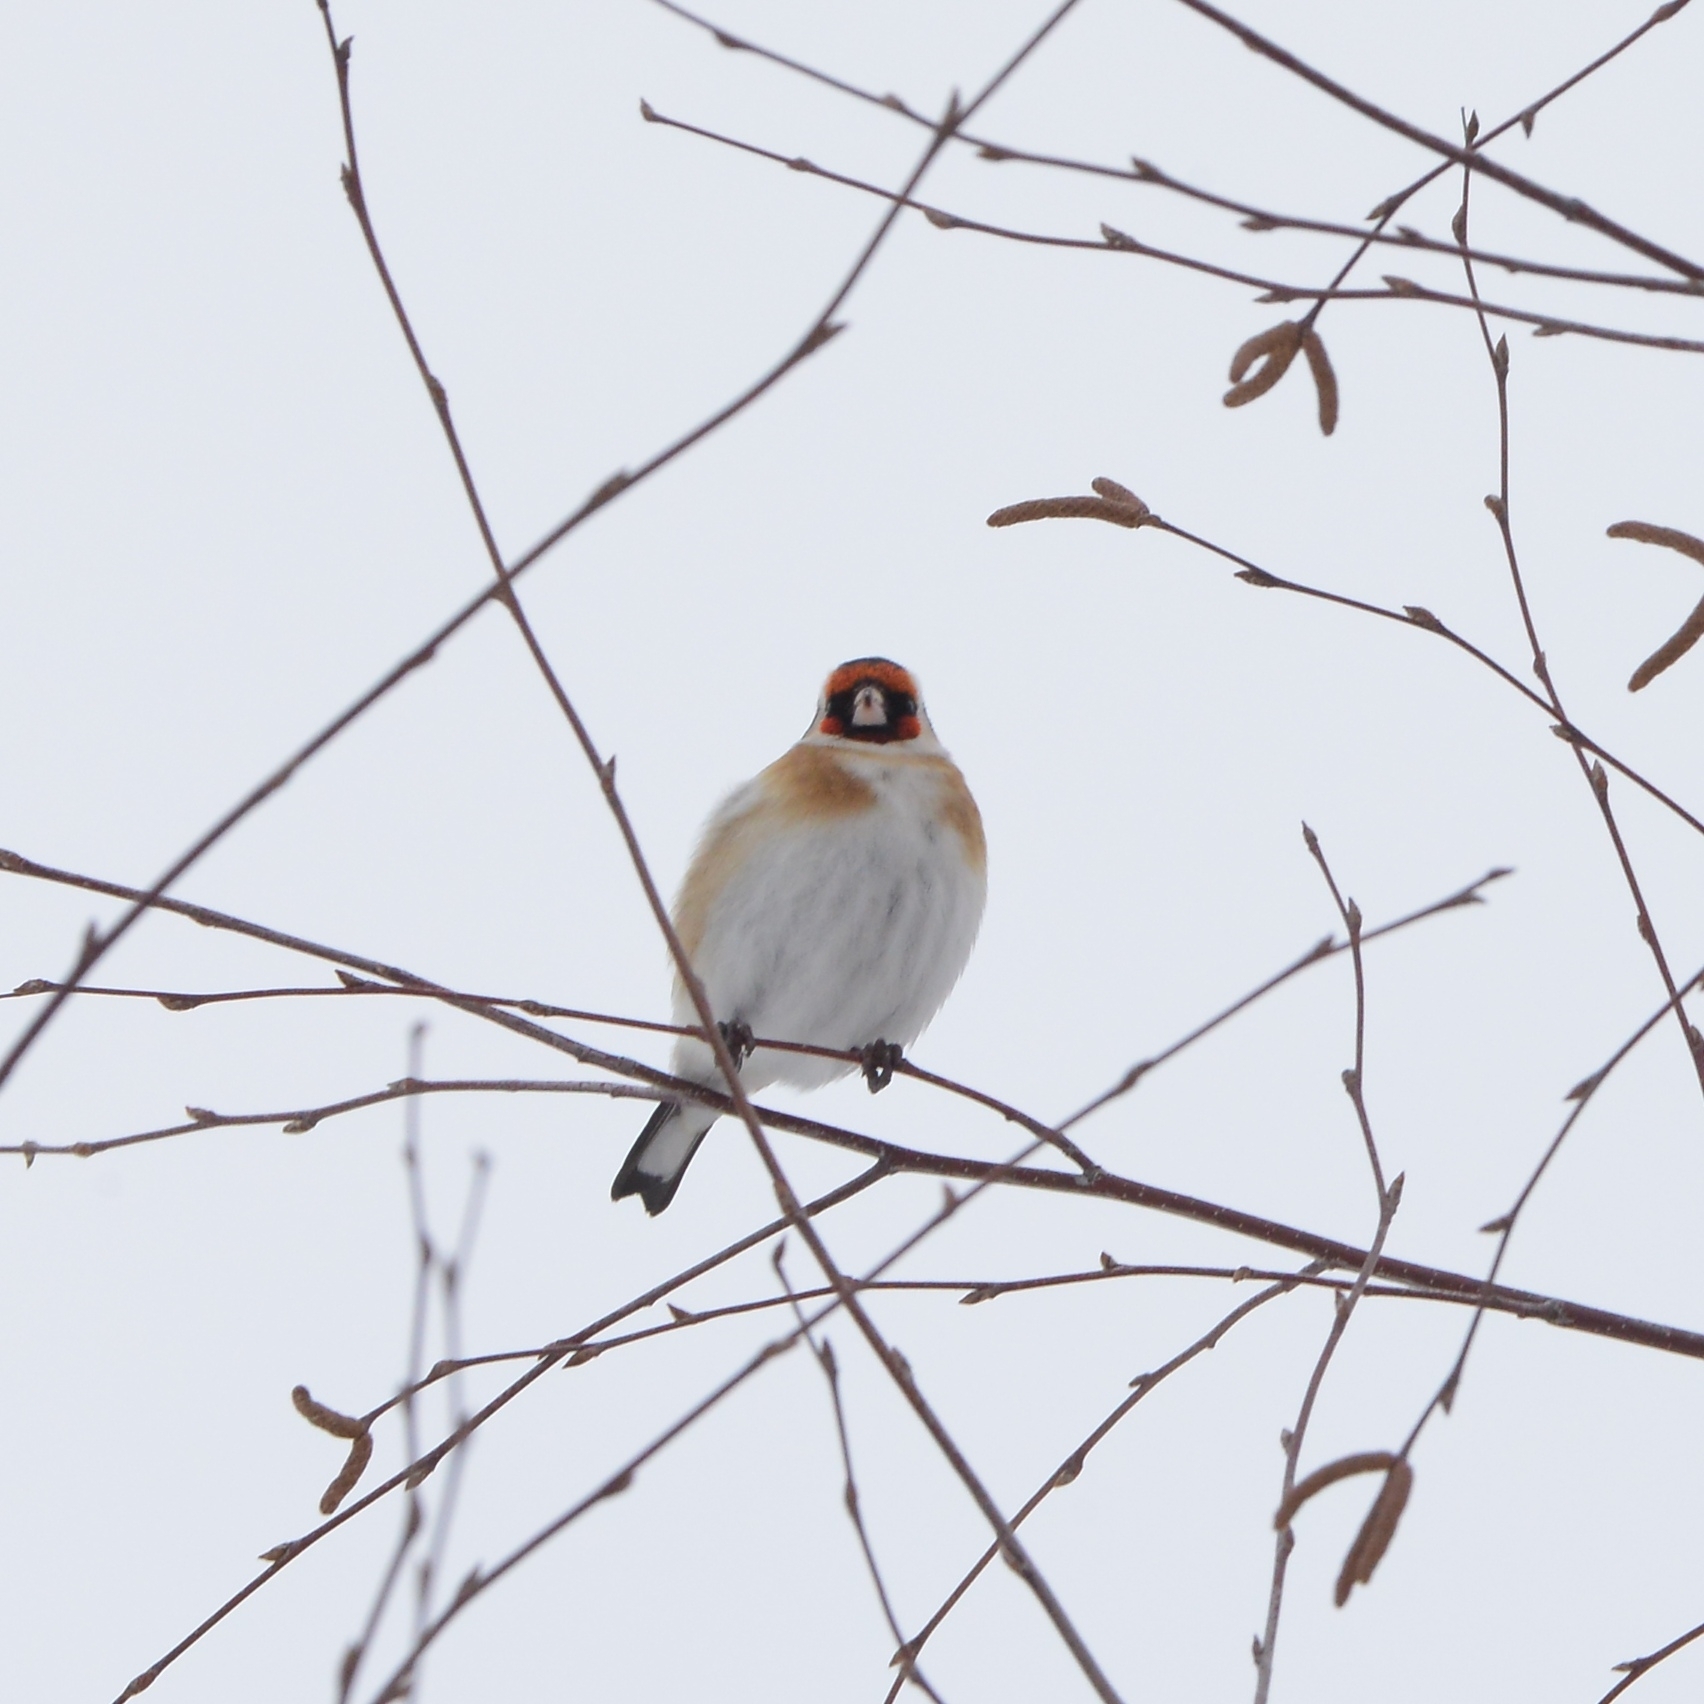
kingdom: Animalia
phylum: Chordata
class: Aves
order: Passeriformes
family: Fringillidae
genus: Carduelis
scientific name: Carduelis carduelis
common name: European goldfinch
